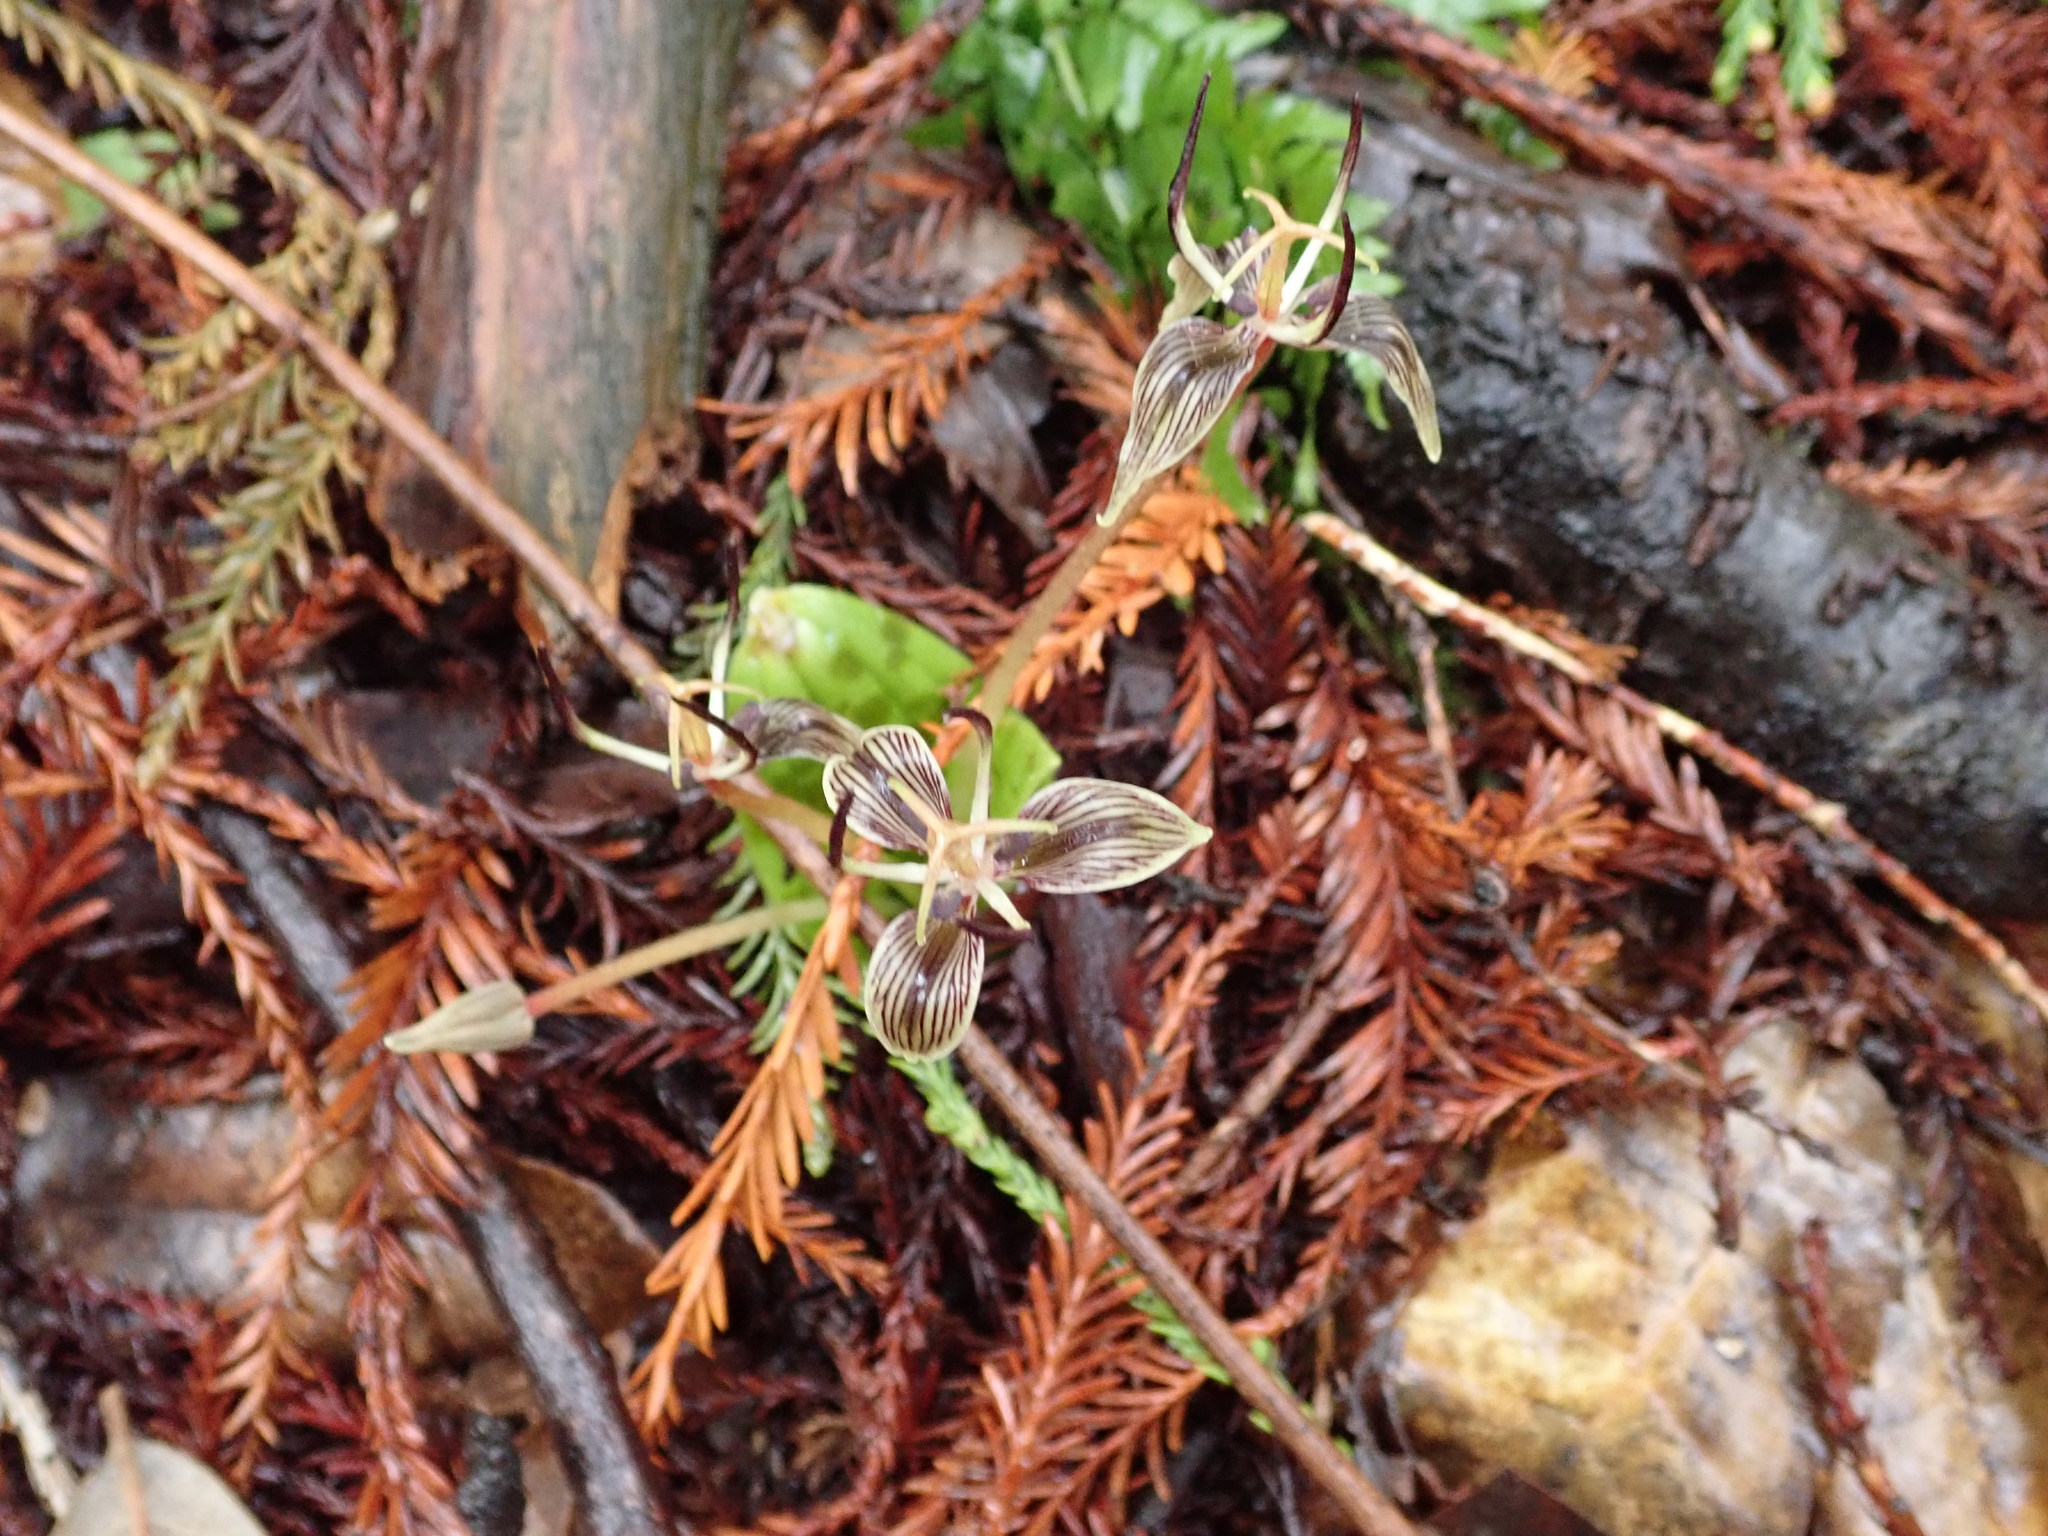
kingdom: Plantae
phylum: Tracheophyta
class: Liliopsida
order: Liliales
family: Liliaceae
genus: Scoliopus
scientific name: Scoliopus bigelovii
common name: Foetid adder's-tongue
